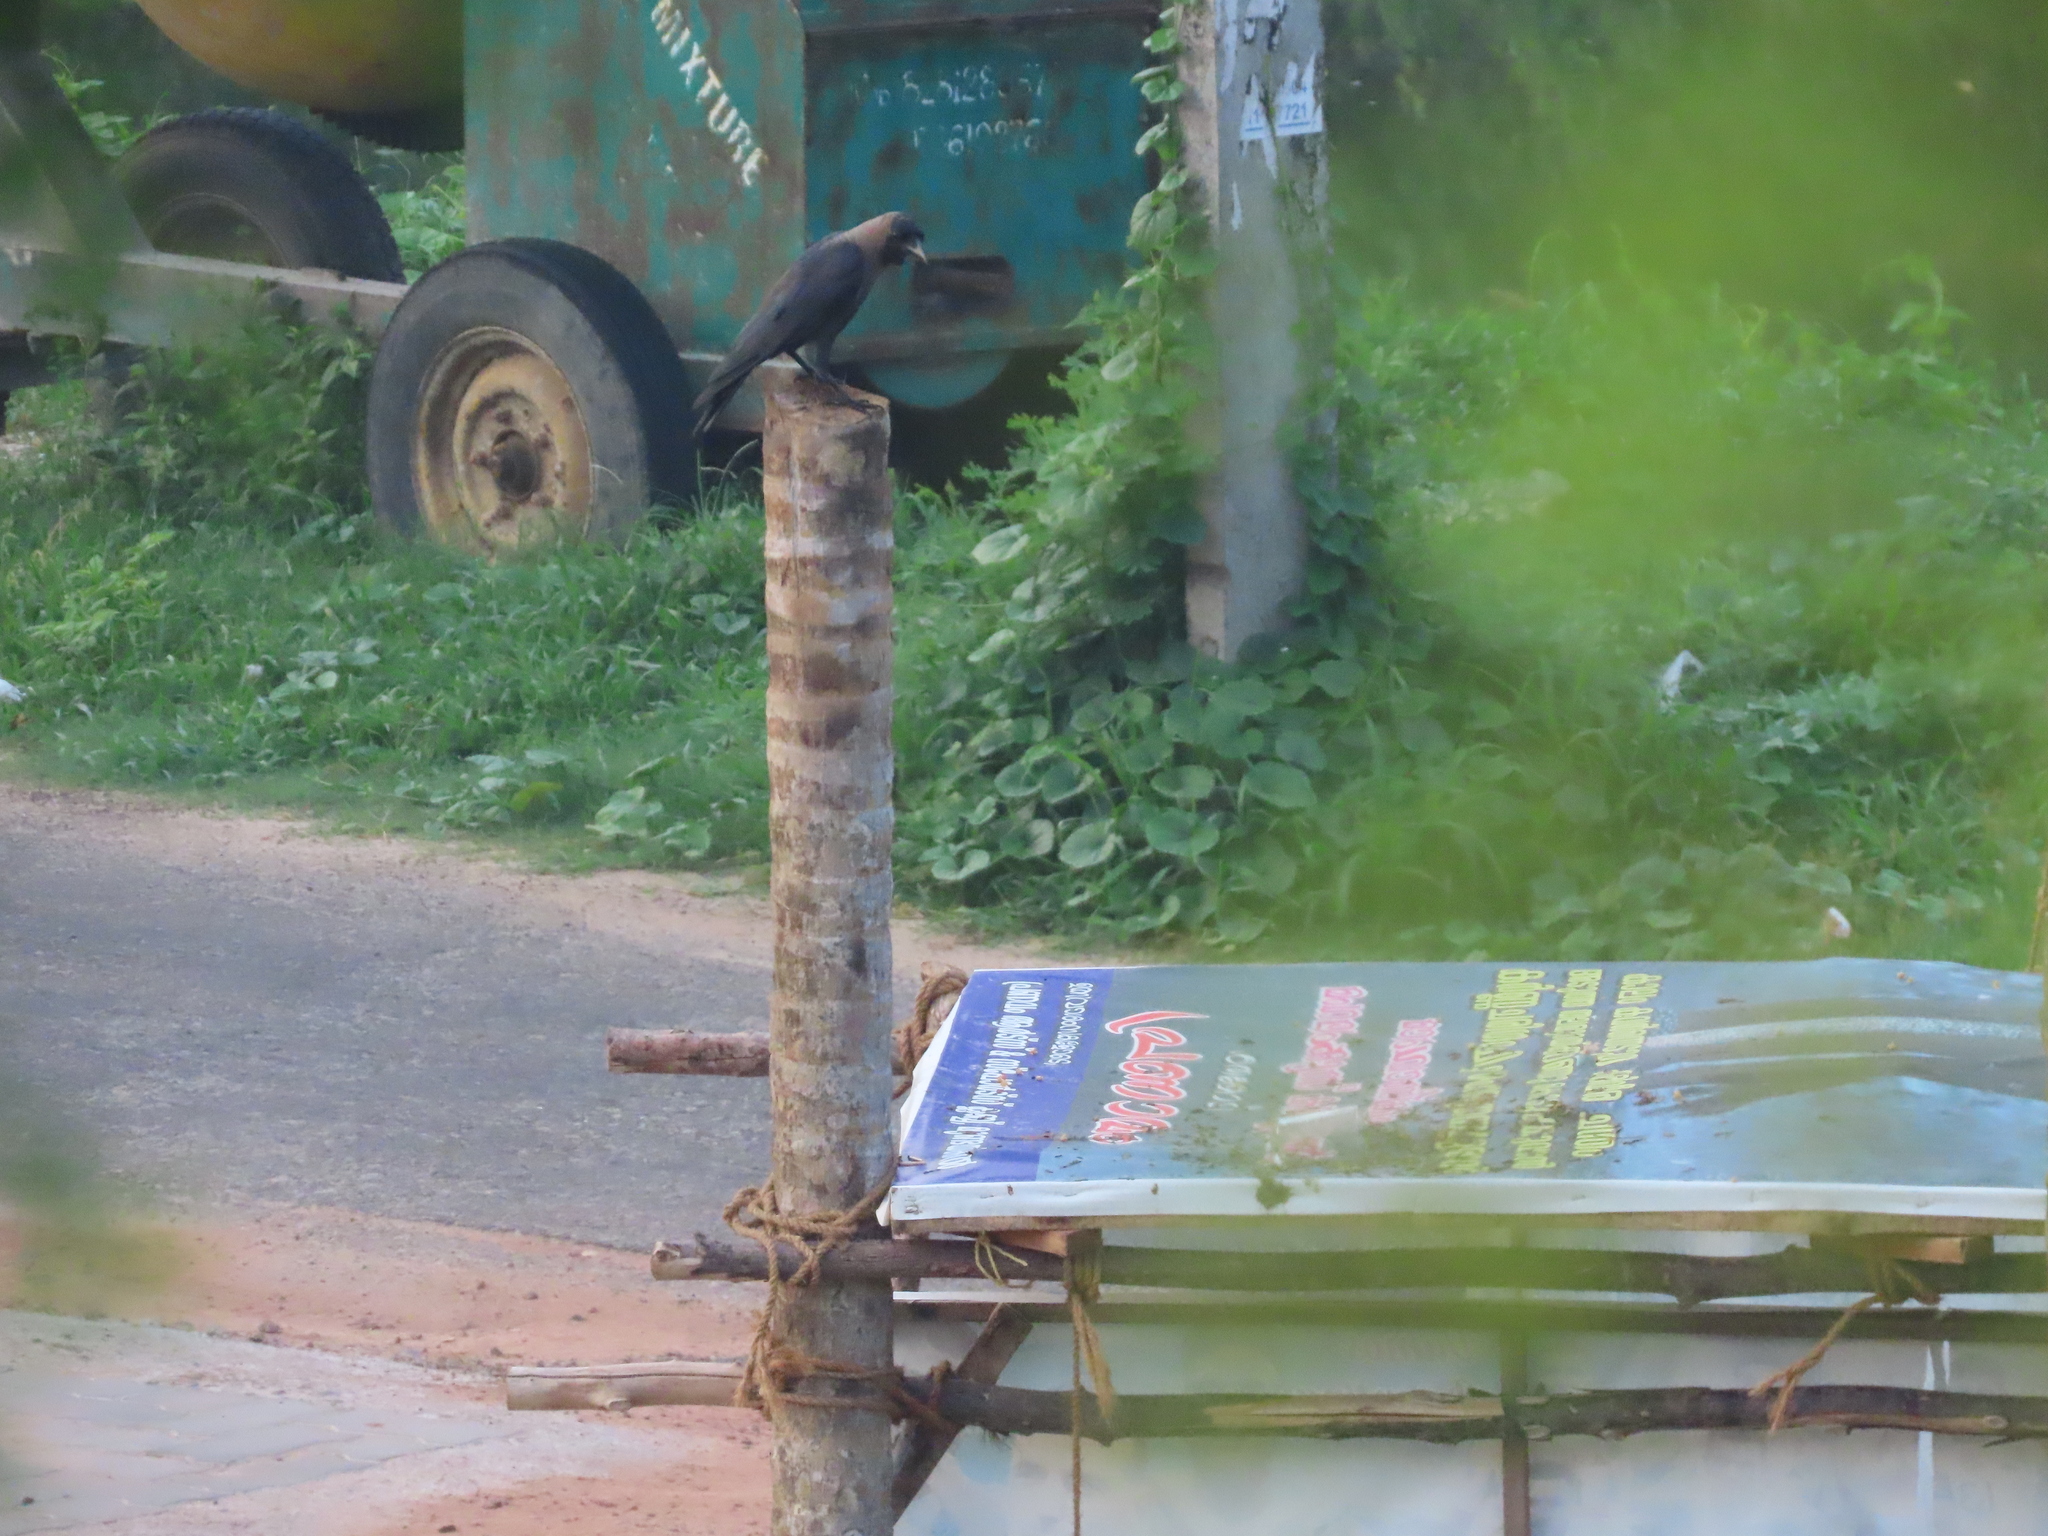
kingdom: Animalia
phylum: Chordata
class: Aves
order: Passeriformes
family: Corvidae
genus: Corvus
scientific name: Corvus splendens
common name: House crow
